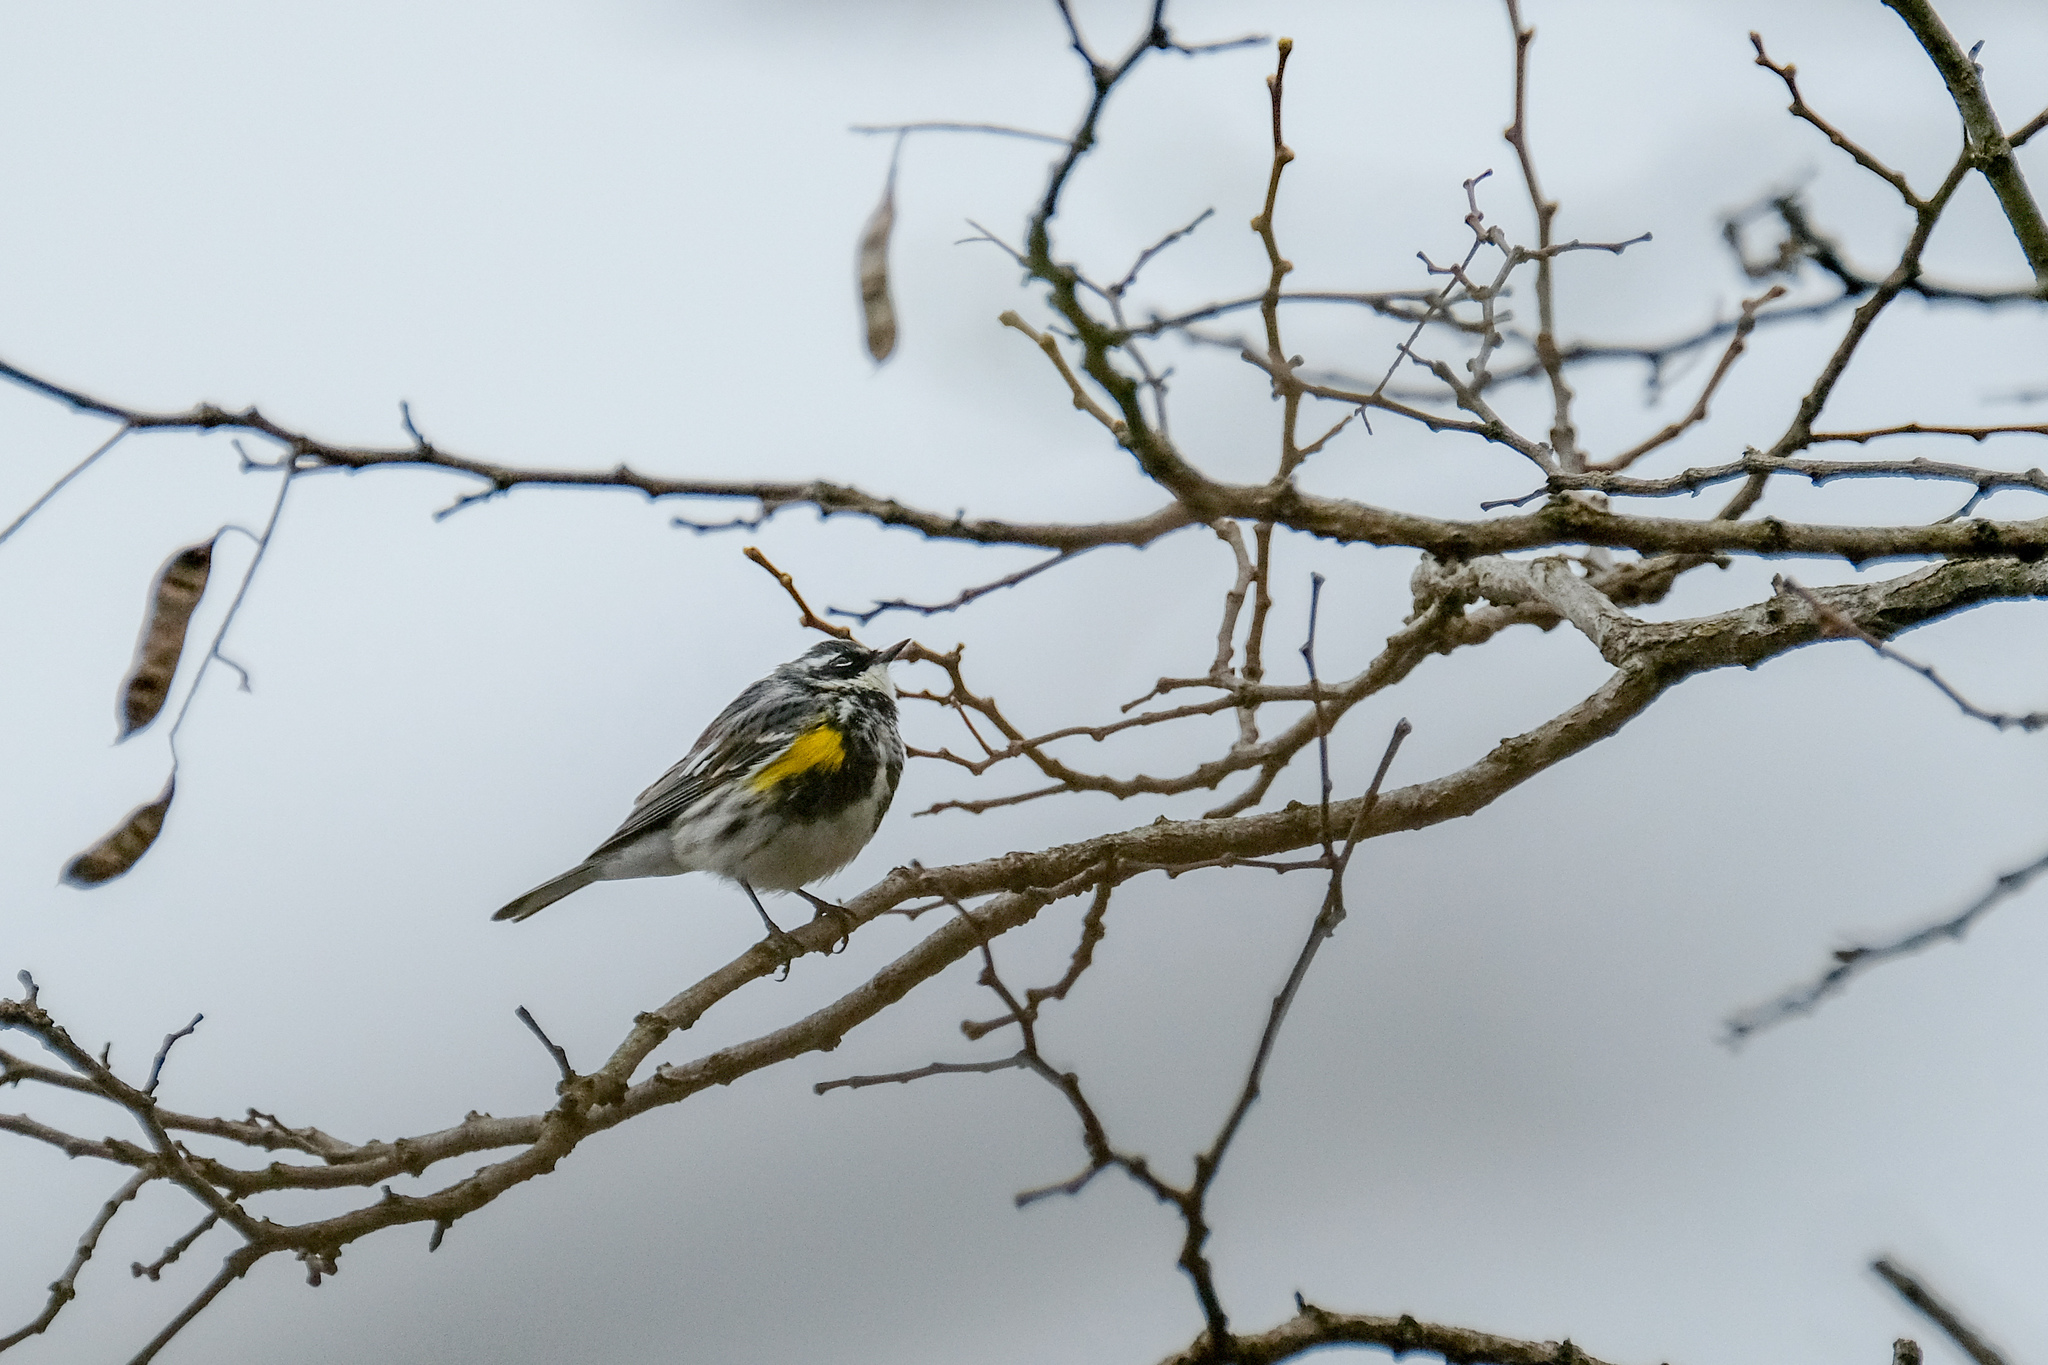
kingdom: Animalia
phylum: Chordata
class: Aves
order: Passeriformes
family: Parulidae
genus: Setophaga
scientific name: Setophaga coronata
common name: Myrtle warbler
